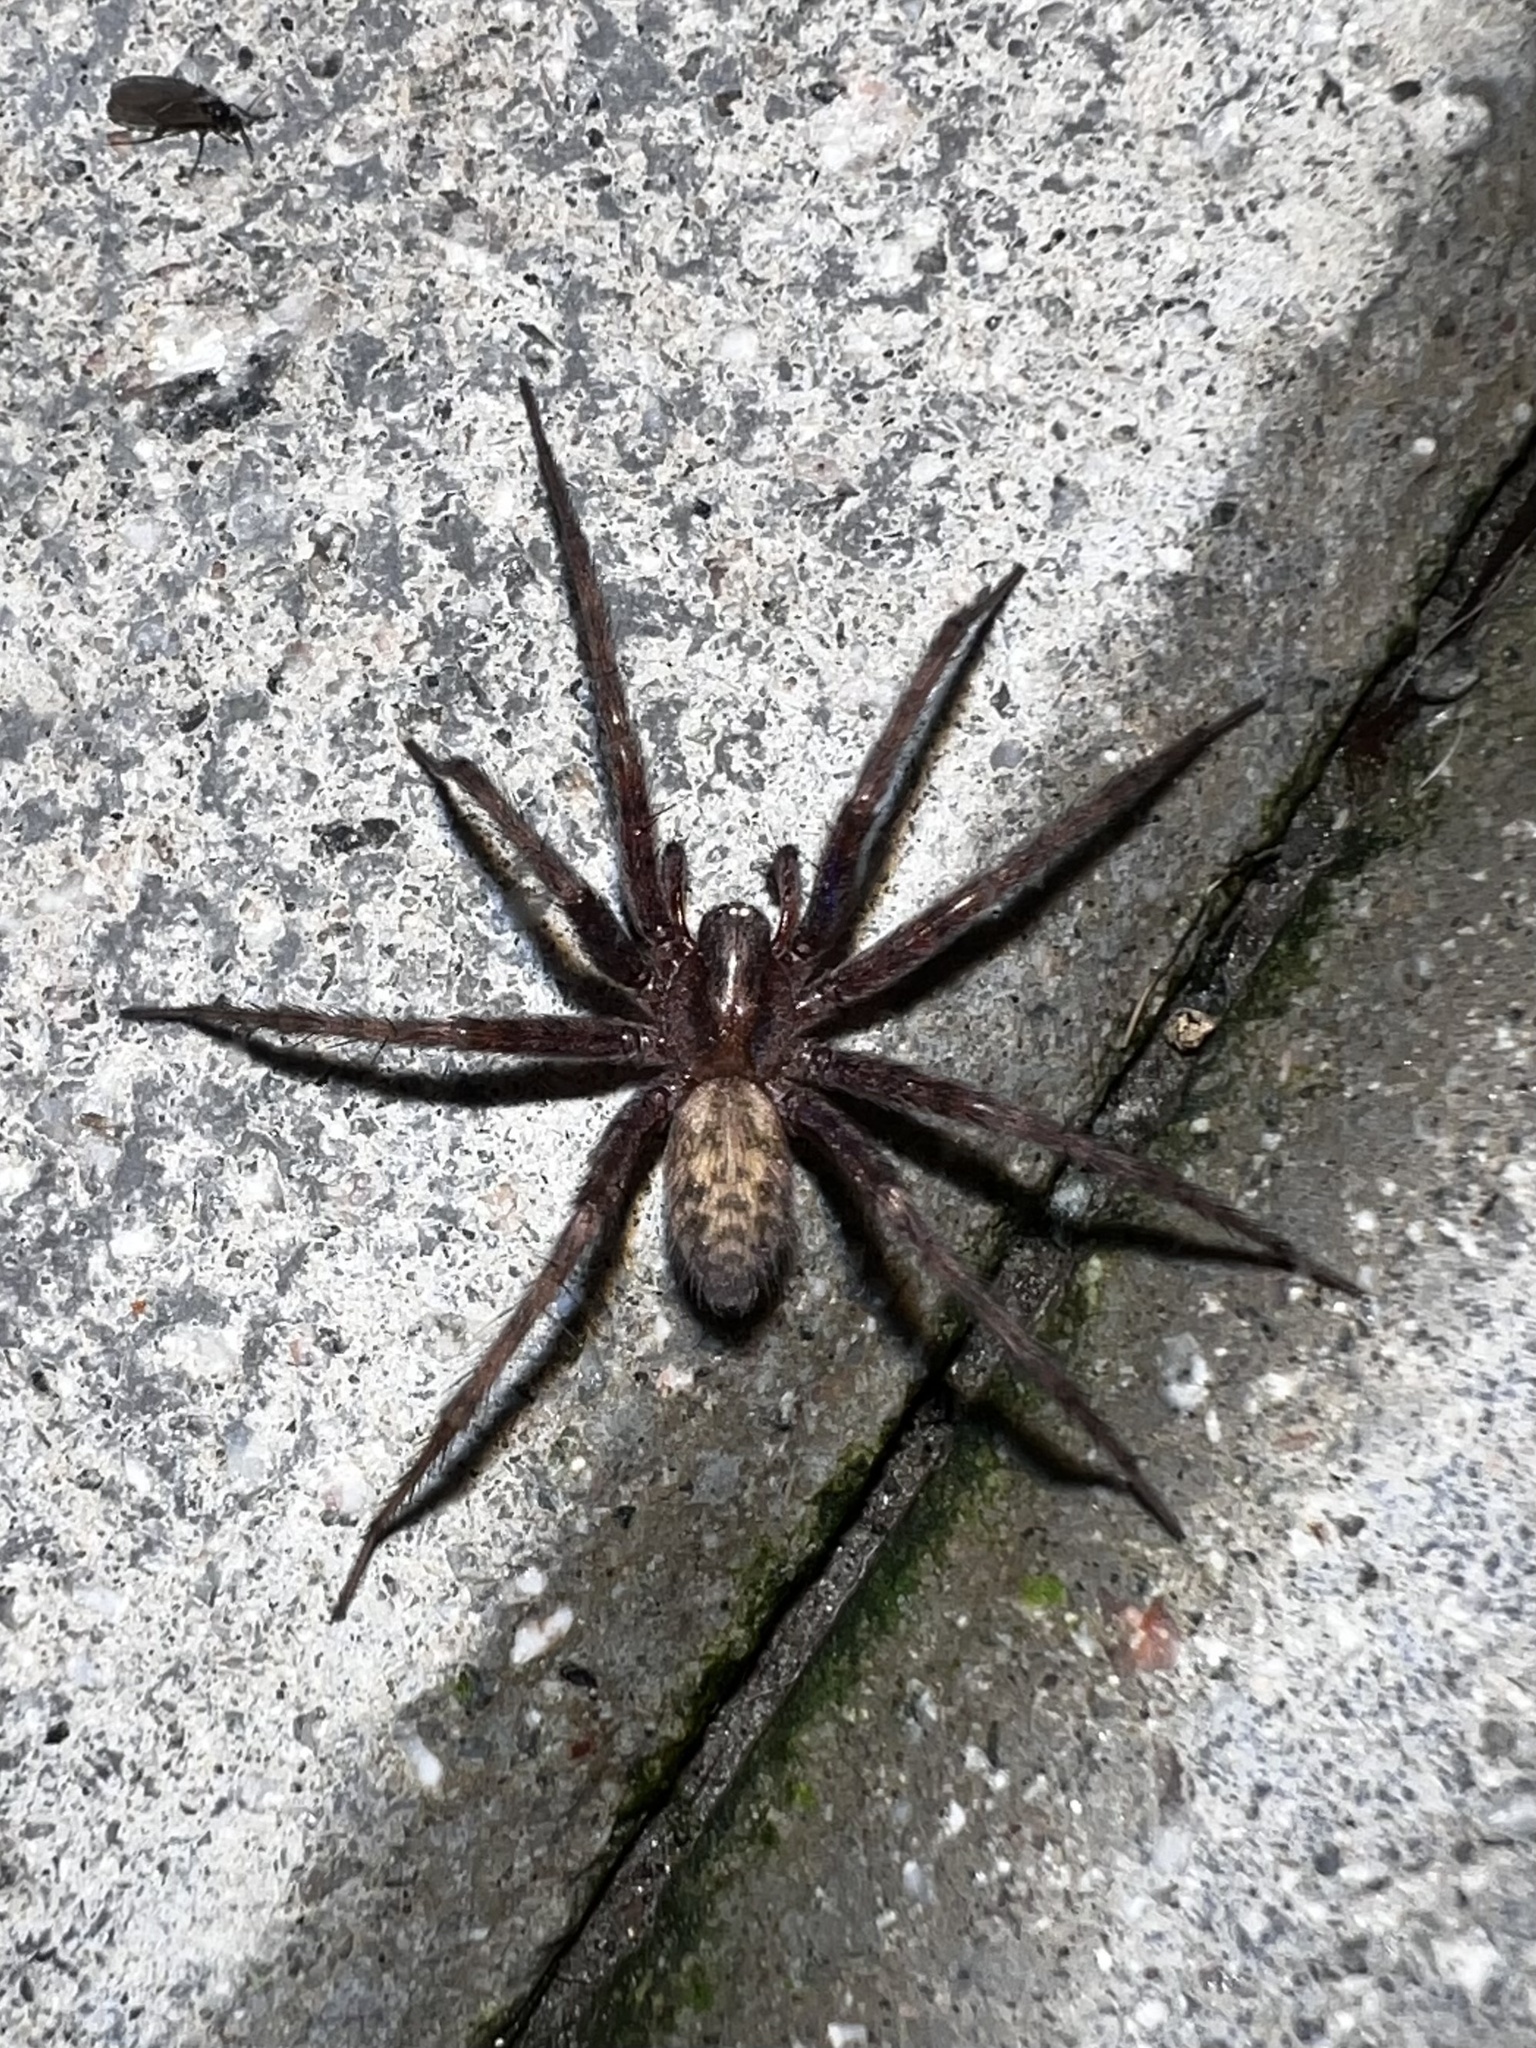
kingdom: Animalia
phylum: Arthropoda
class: Arachnida
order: Araneae
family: Agelenidae
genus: Tegenaria
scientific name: Tegenaria domestica
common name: Barn funnel weaver
